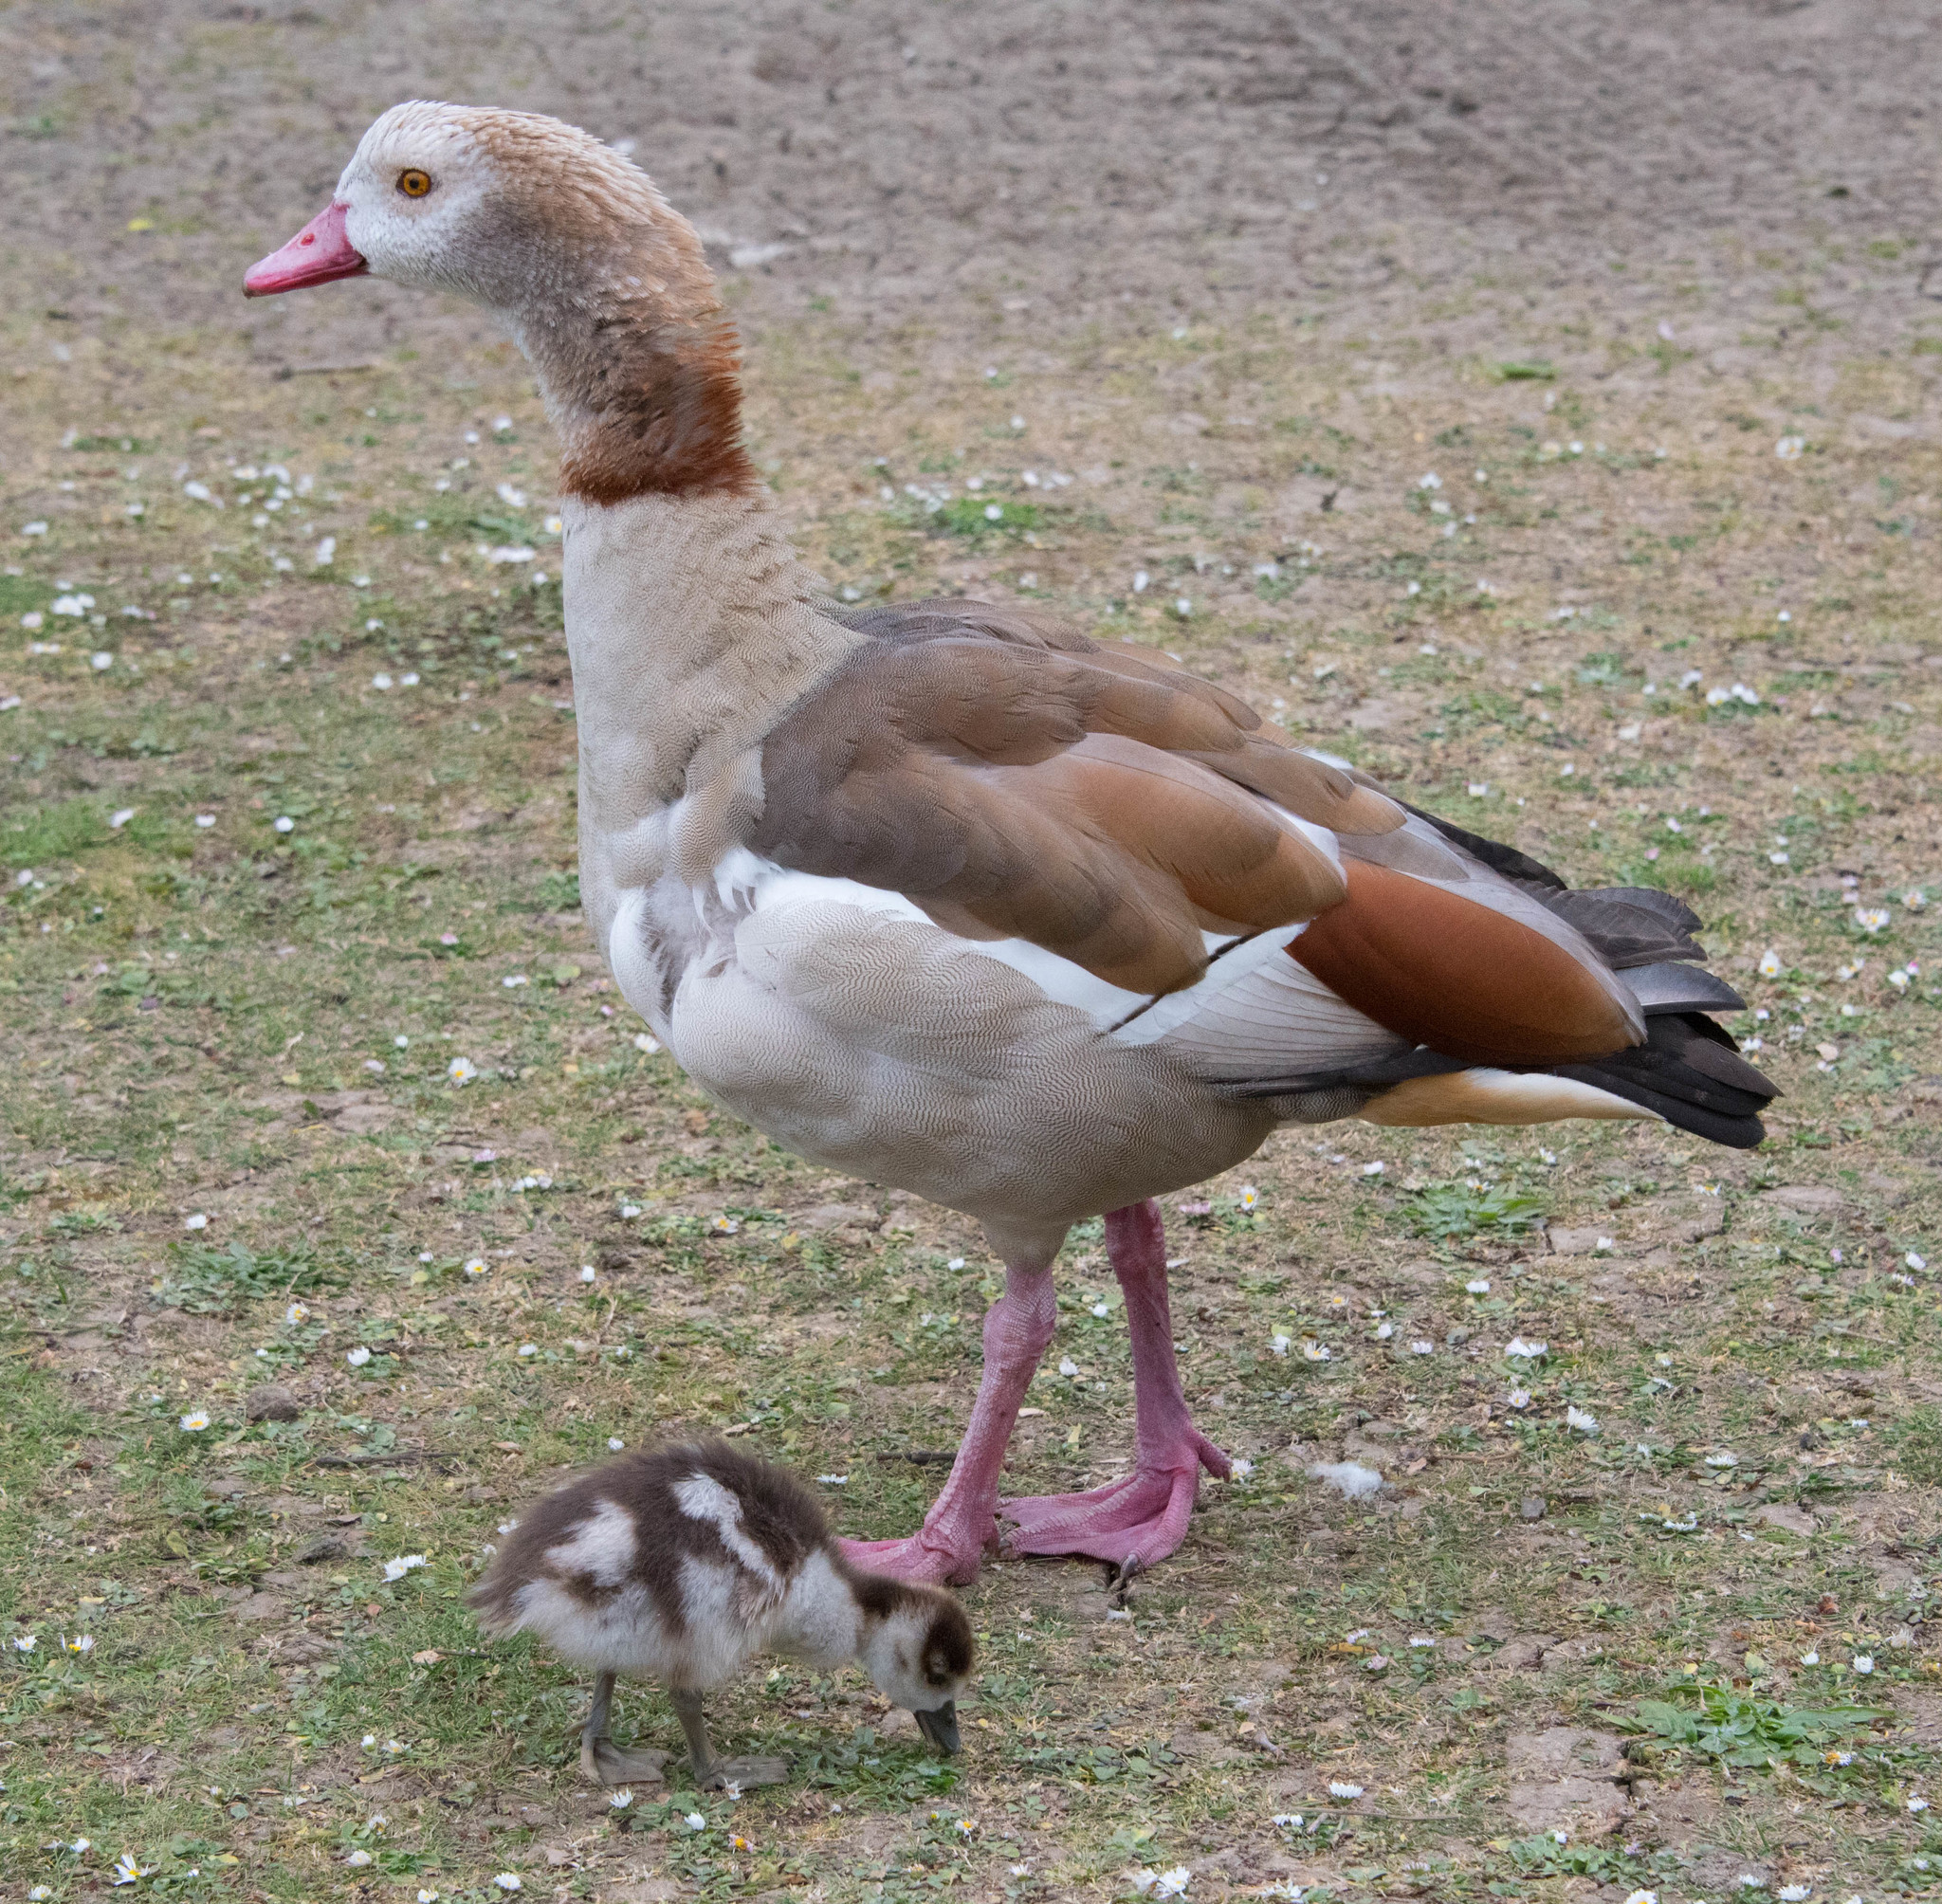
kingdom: Animalia
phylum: Chordata
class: Aves
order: Anseriformes
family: Anatidae
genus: Alopochen
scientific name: Alopochen aegyptiaca
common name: Egyptian goose
